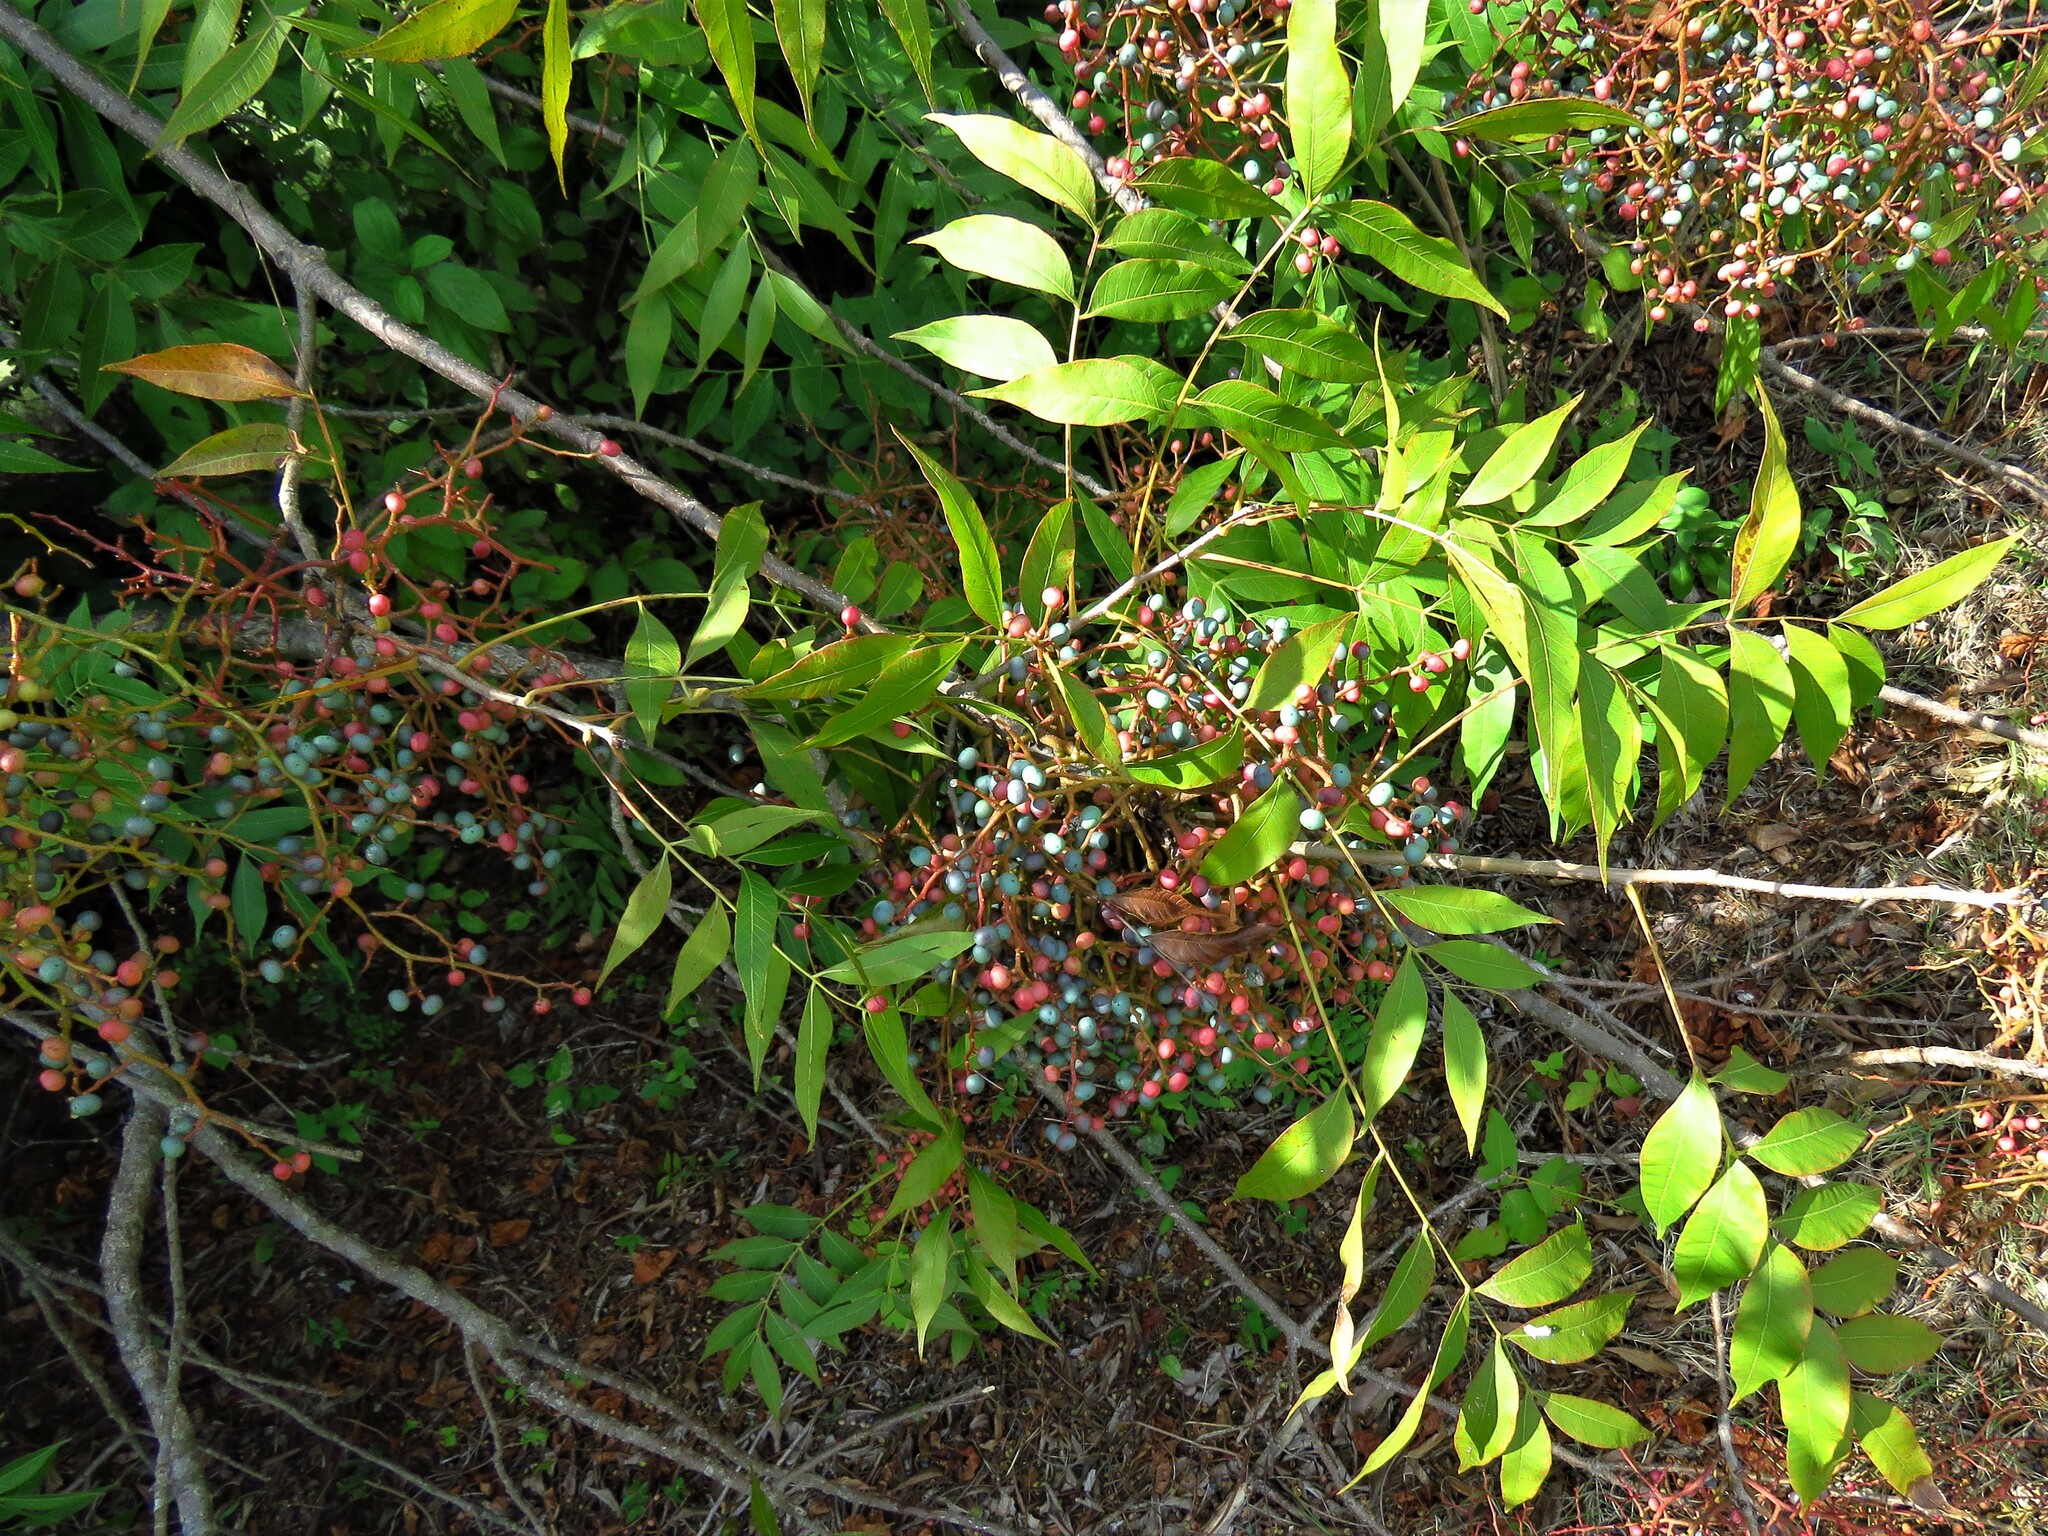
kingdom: Plantae
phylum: Tracheophyta
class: Magnoliopsida
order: Sapindales
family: Anacardiaceae
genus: Pistacia
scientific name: Pistacia chinensis
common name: Chinese pistache
